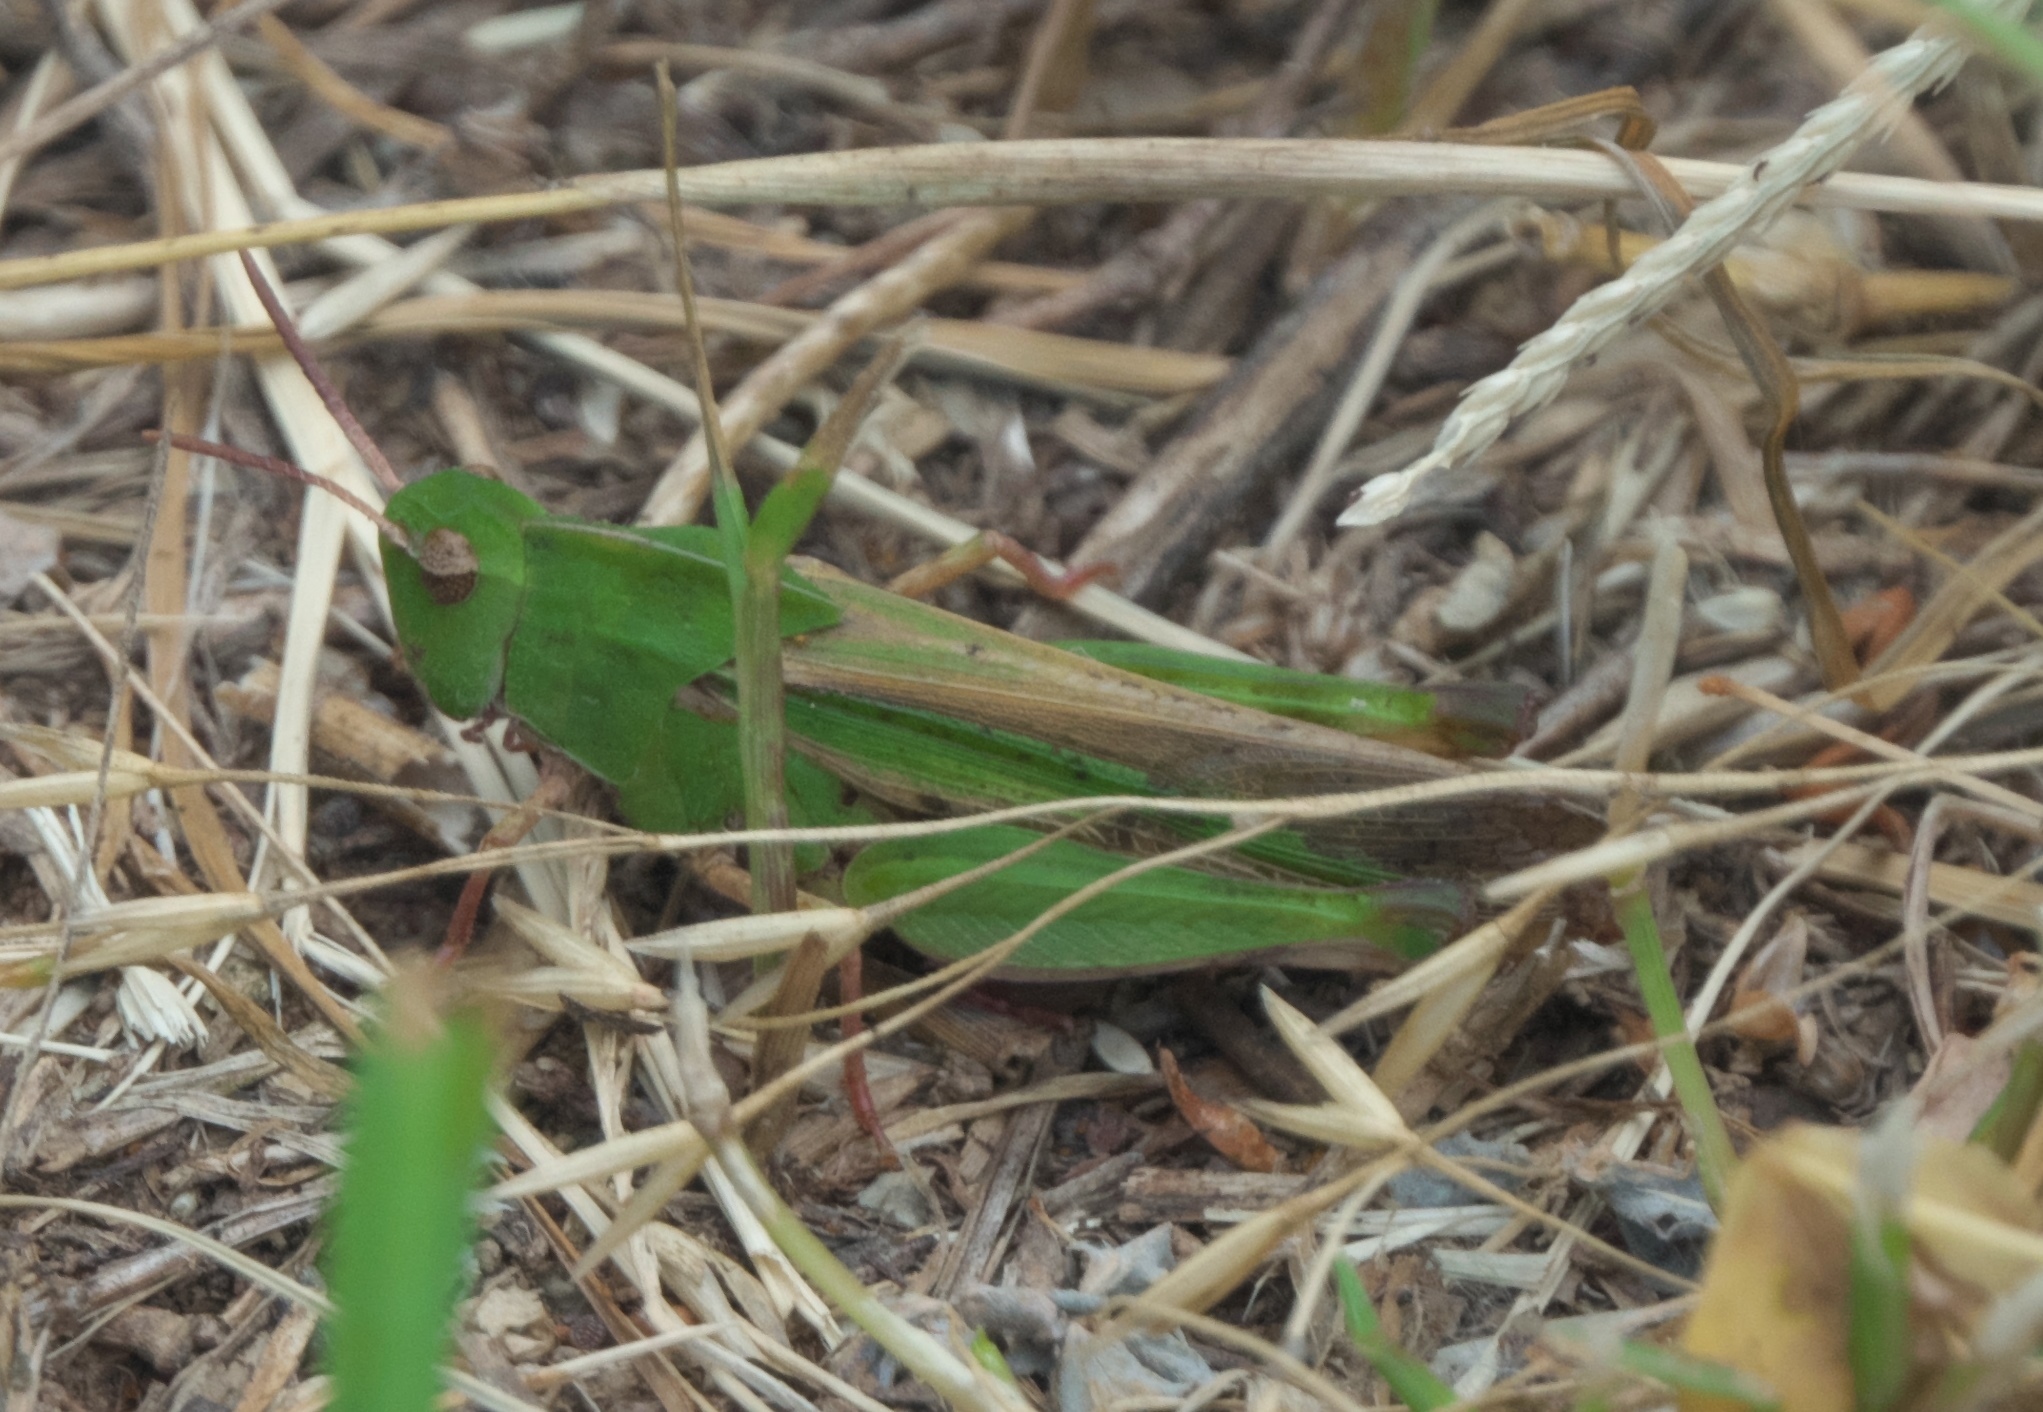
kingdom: Animalia
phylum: Arthropoda
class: Insecta
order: Orthoptera
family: Acrididae
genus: Chortophaga
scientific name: Chortophaga viridifasciata
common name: Green-striped grasshopper
